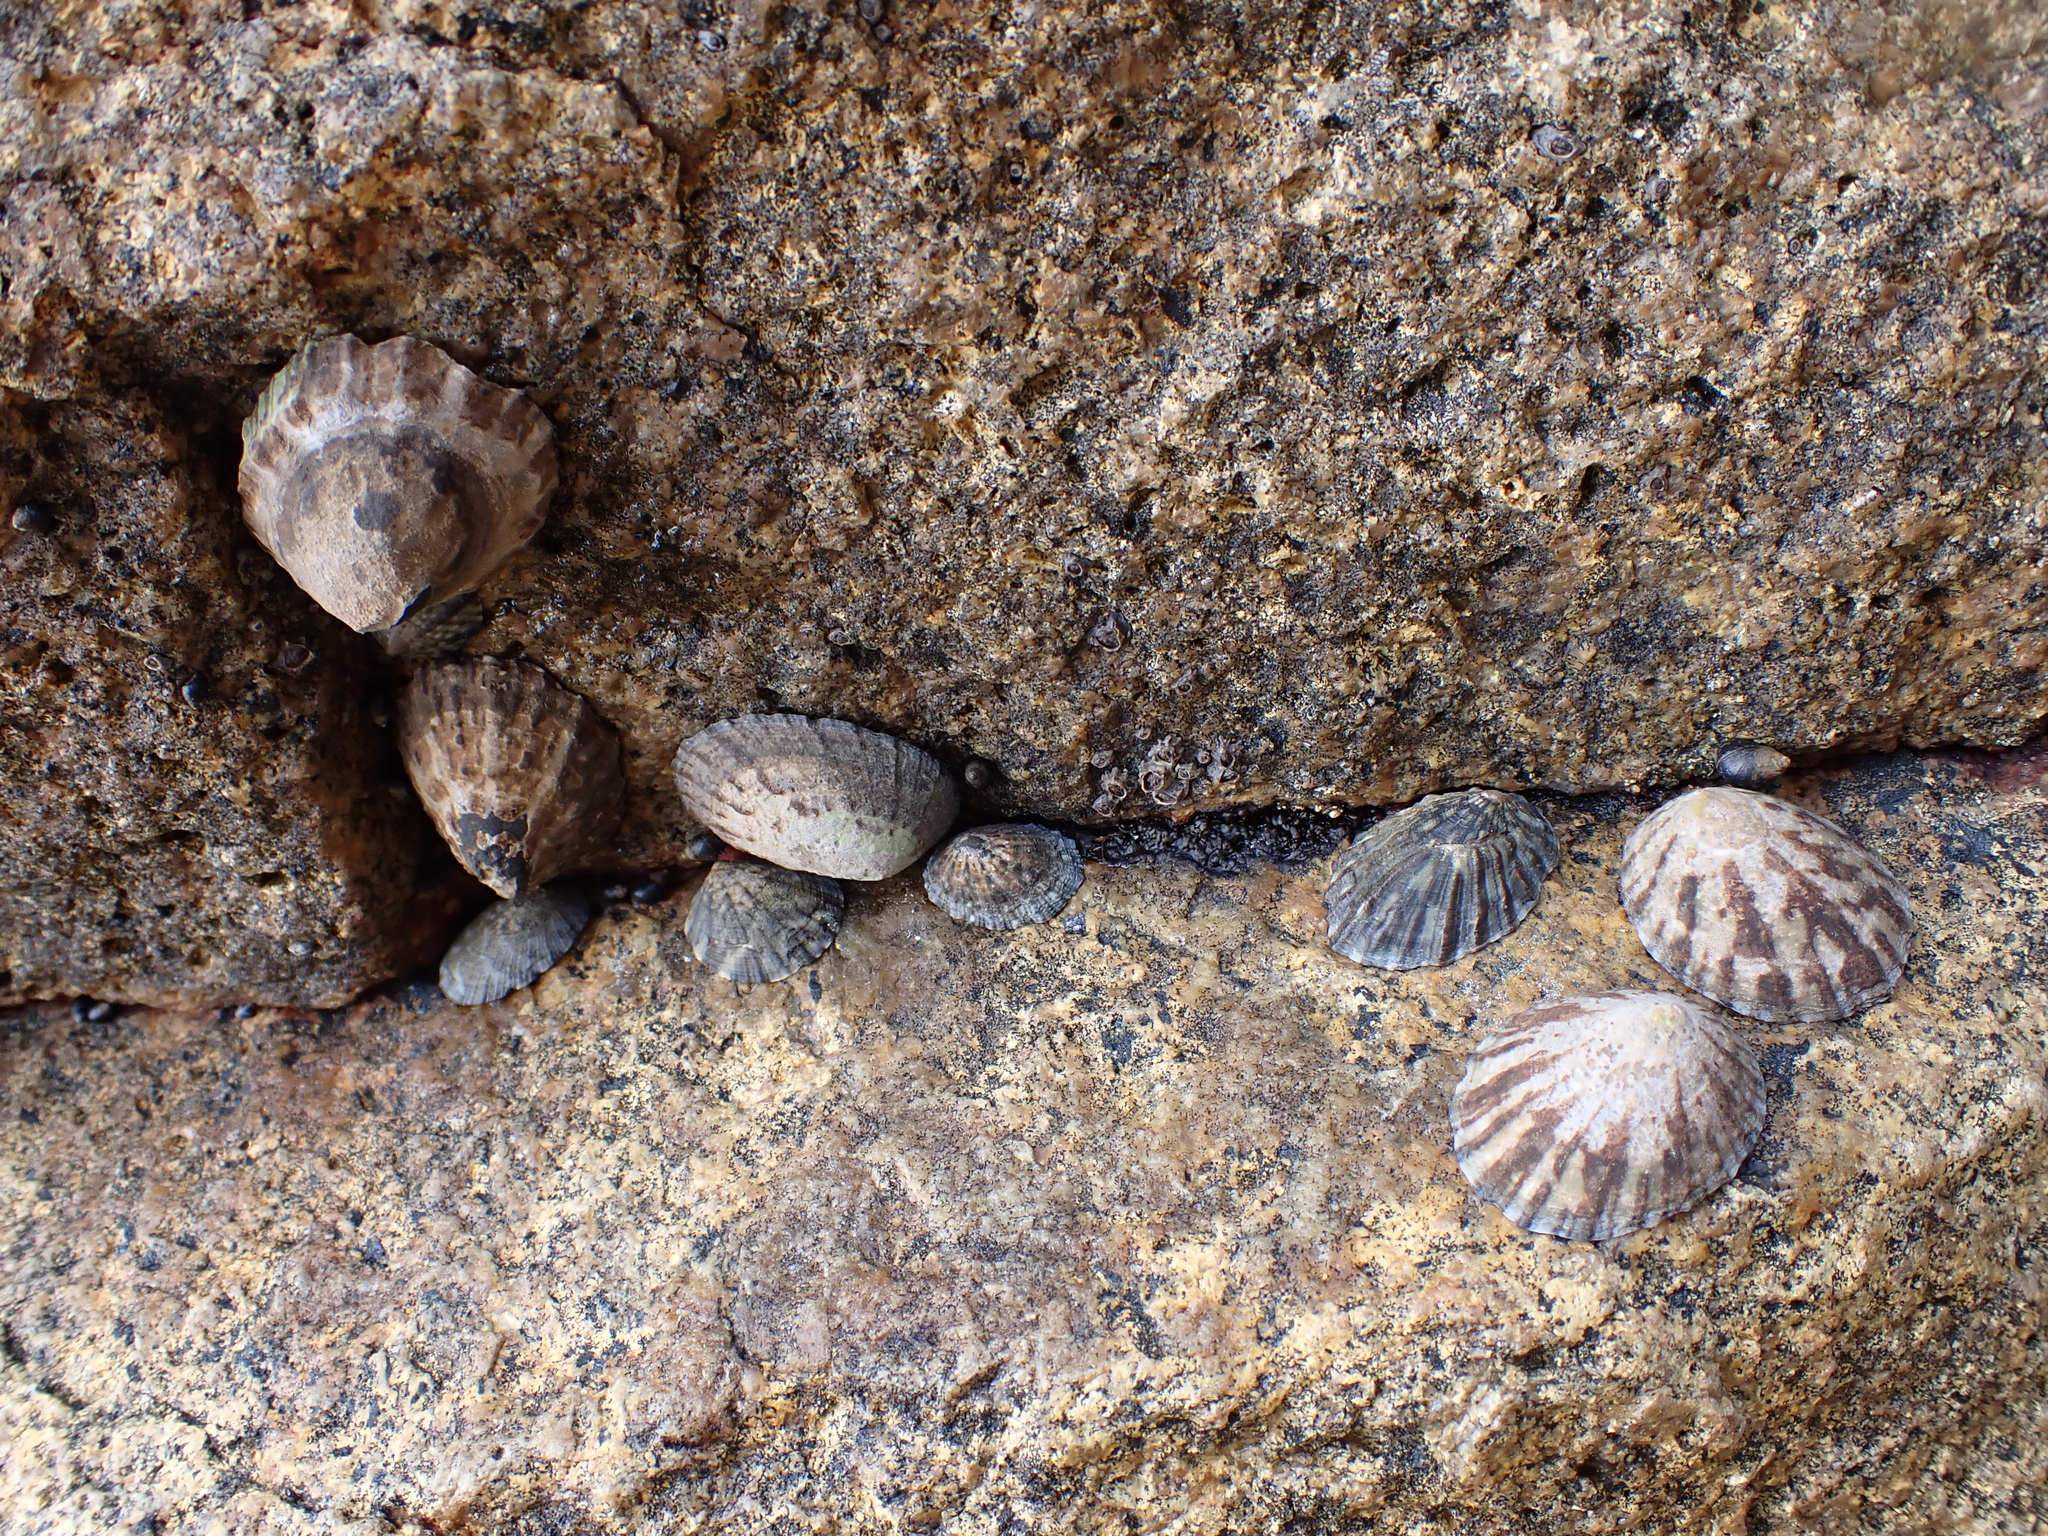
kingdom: Animalia
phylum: Mollusca
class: Gastropoda
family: Nacellidae
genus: Cellana
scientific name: Cellana strigilis
